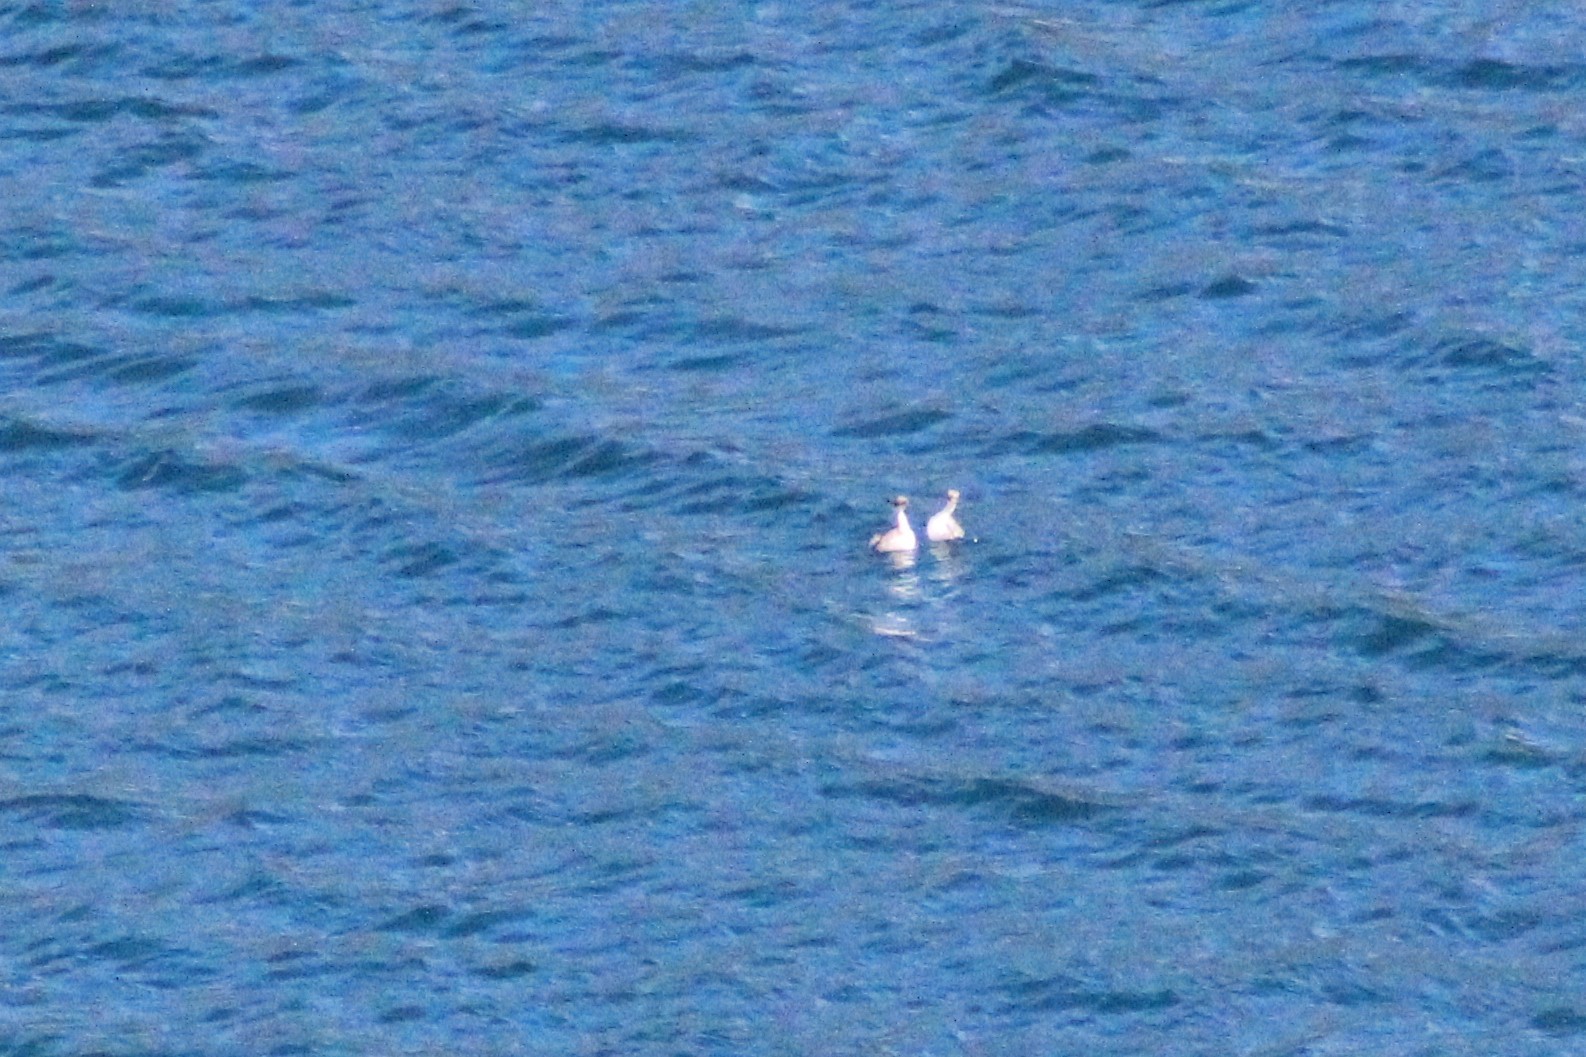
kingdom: Animalia
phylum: Chordata
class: Aves
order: Podicipediformes
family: Podicipedidae
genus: Podiceps
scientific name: Podiceps occipitalis
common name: Silvery grebe
